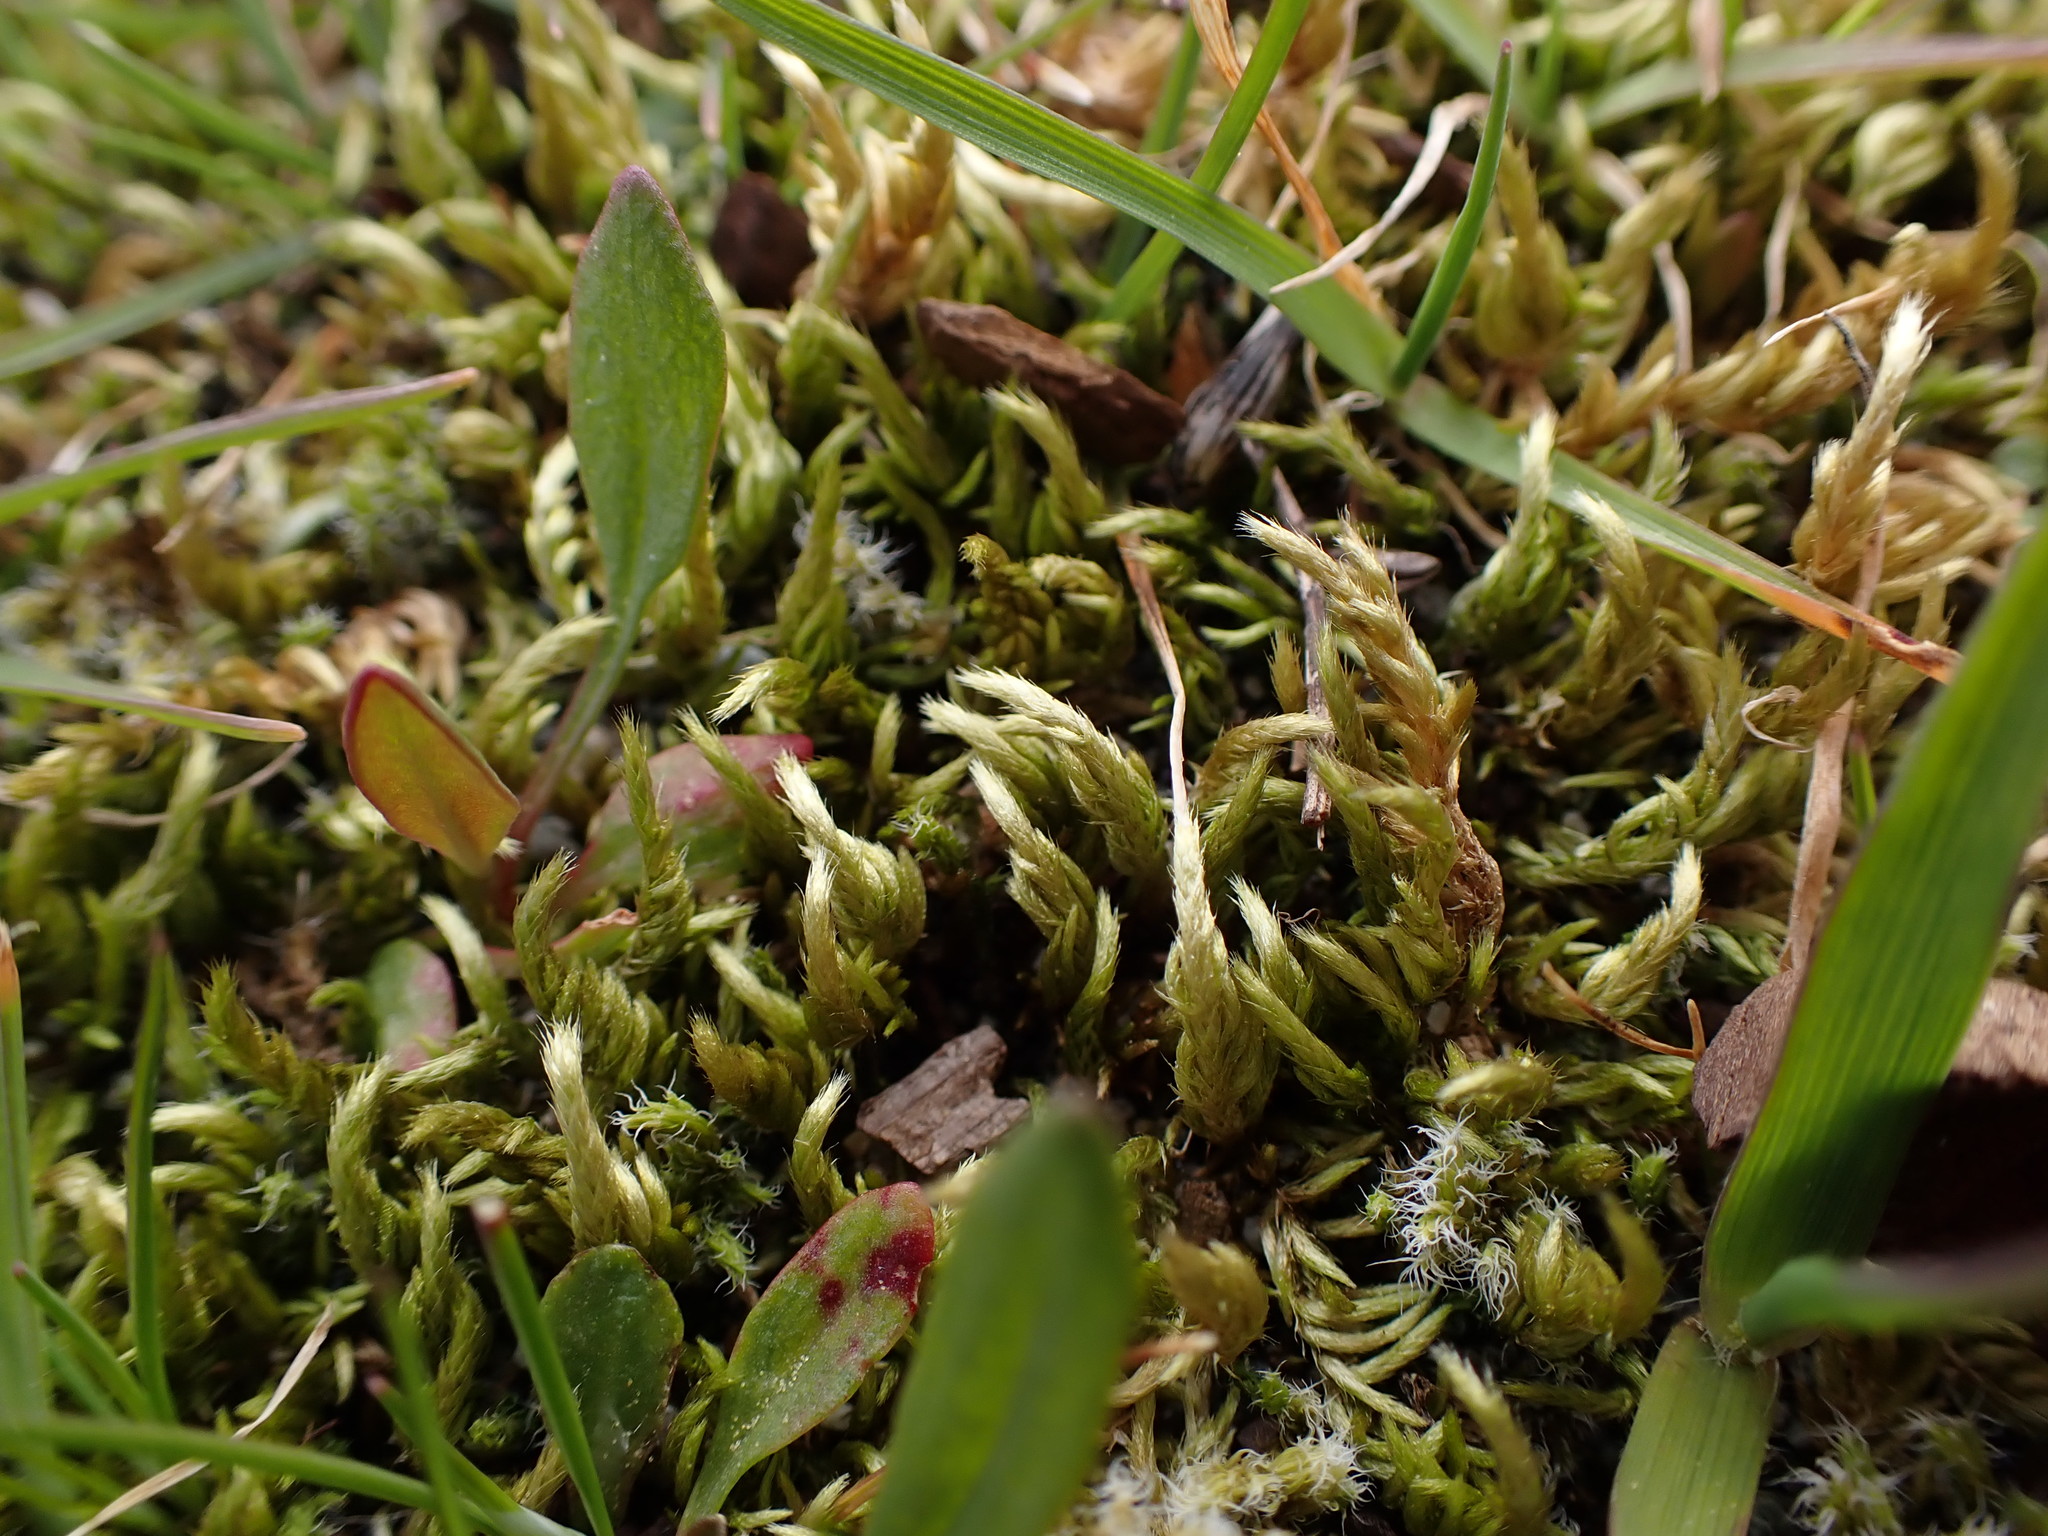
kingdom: Plantae
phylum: Bryophyta
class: Bryopsida
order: Hypnales
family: Brachytheciaceae
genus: Homalothecium
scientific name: Homalothecium arenarium
